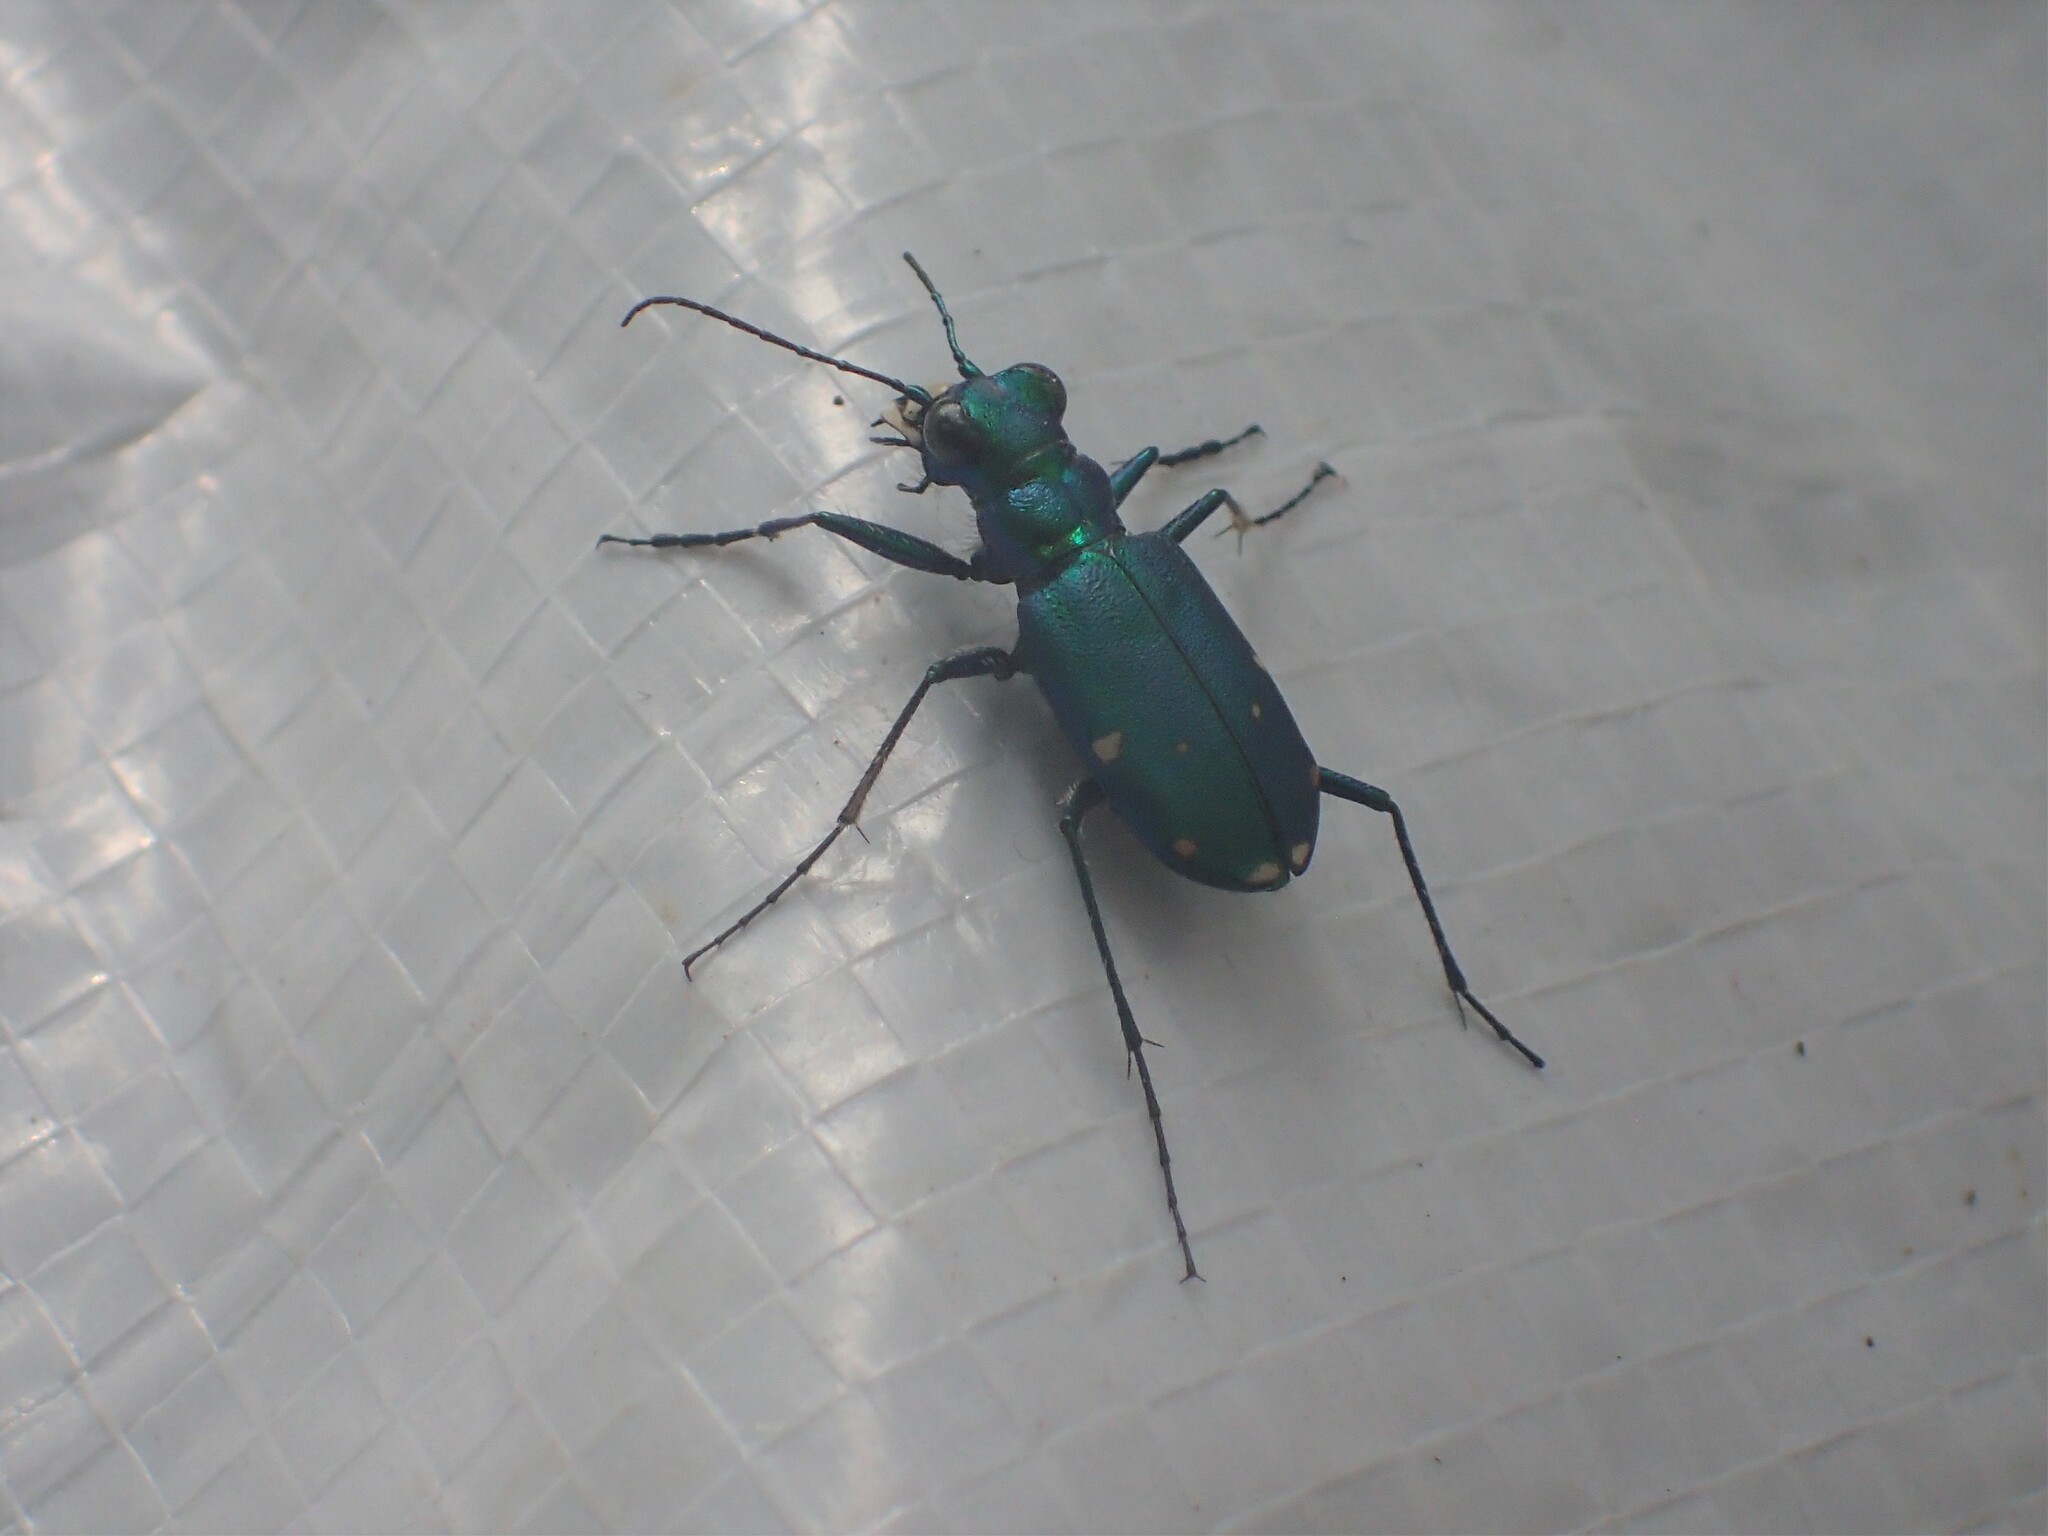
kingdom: Animalia
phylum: Arthropoda
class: Insecta
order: Coleoptera
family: Carabidae
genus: Cicindela
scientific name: Cicindela sexguttata
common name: Six-spotted tiger beetle
